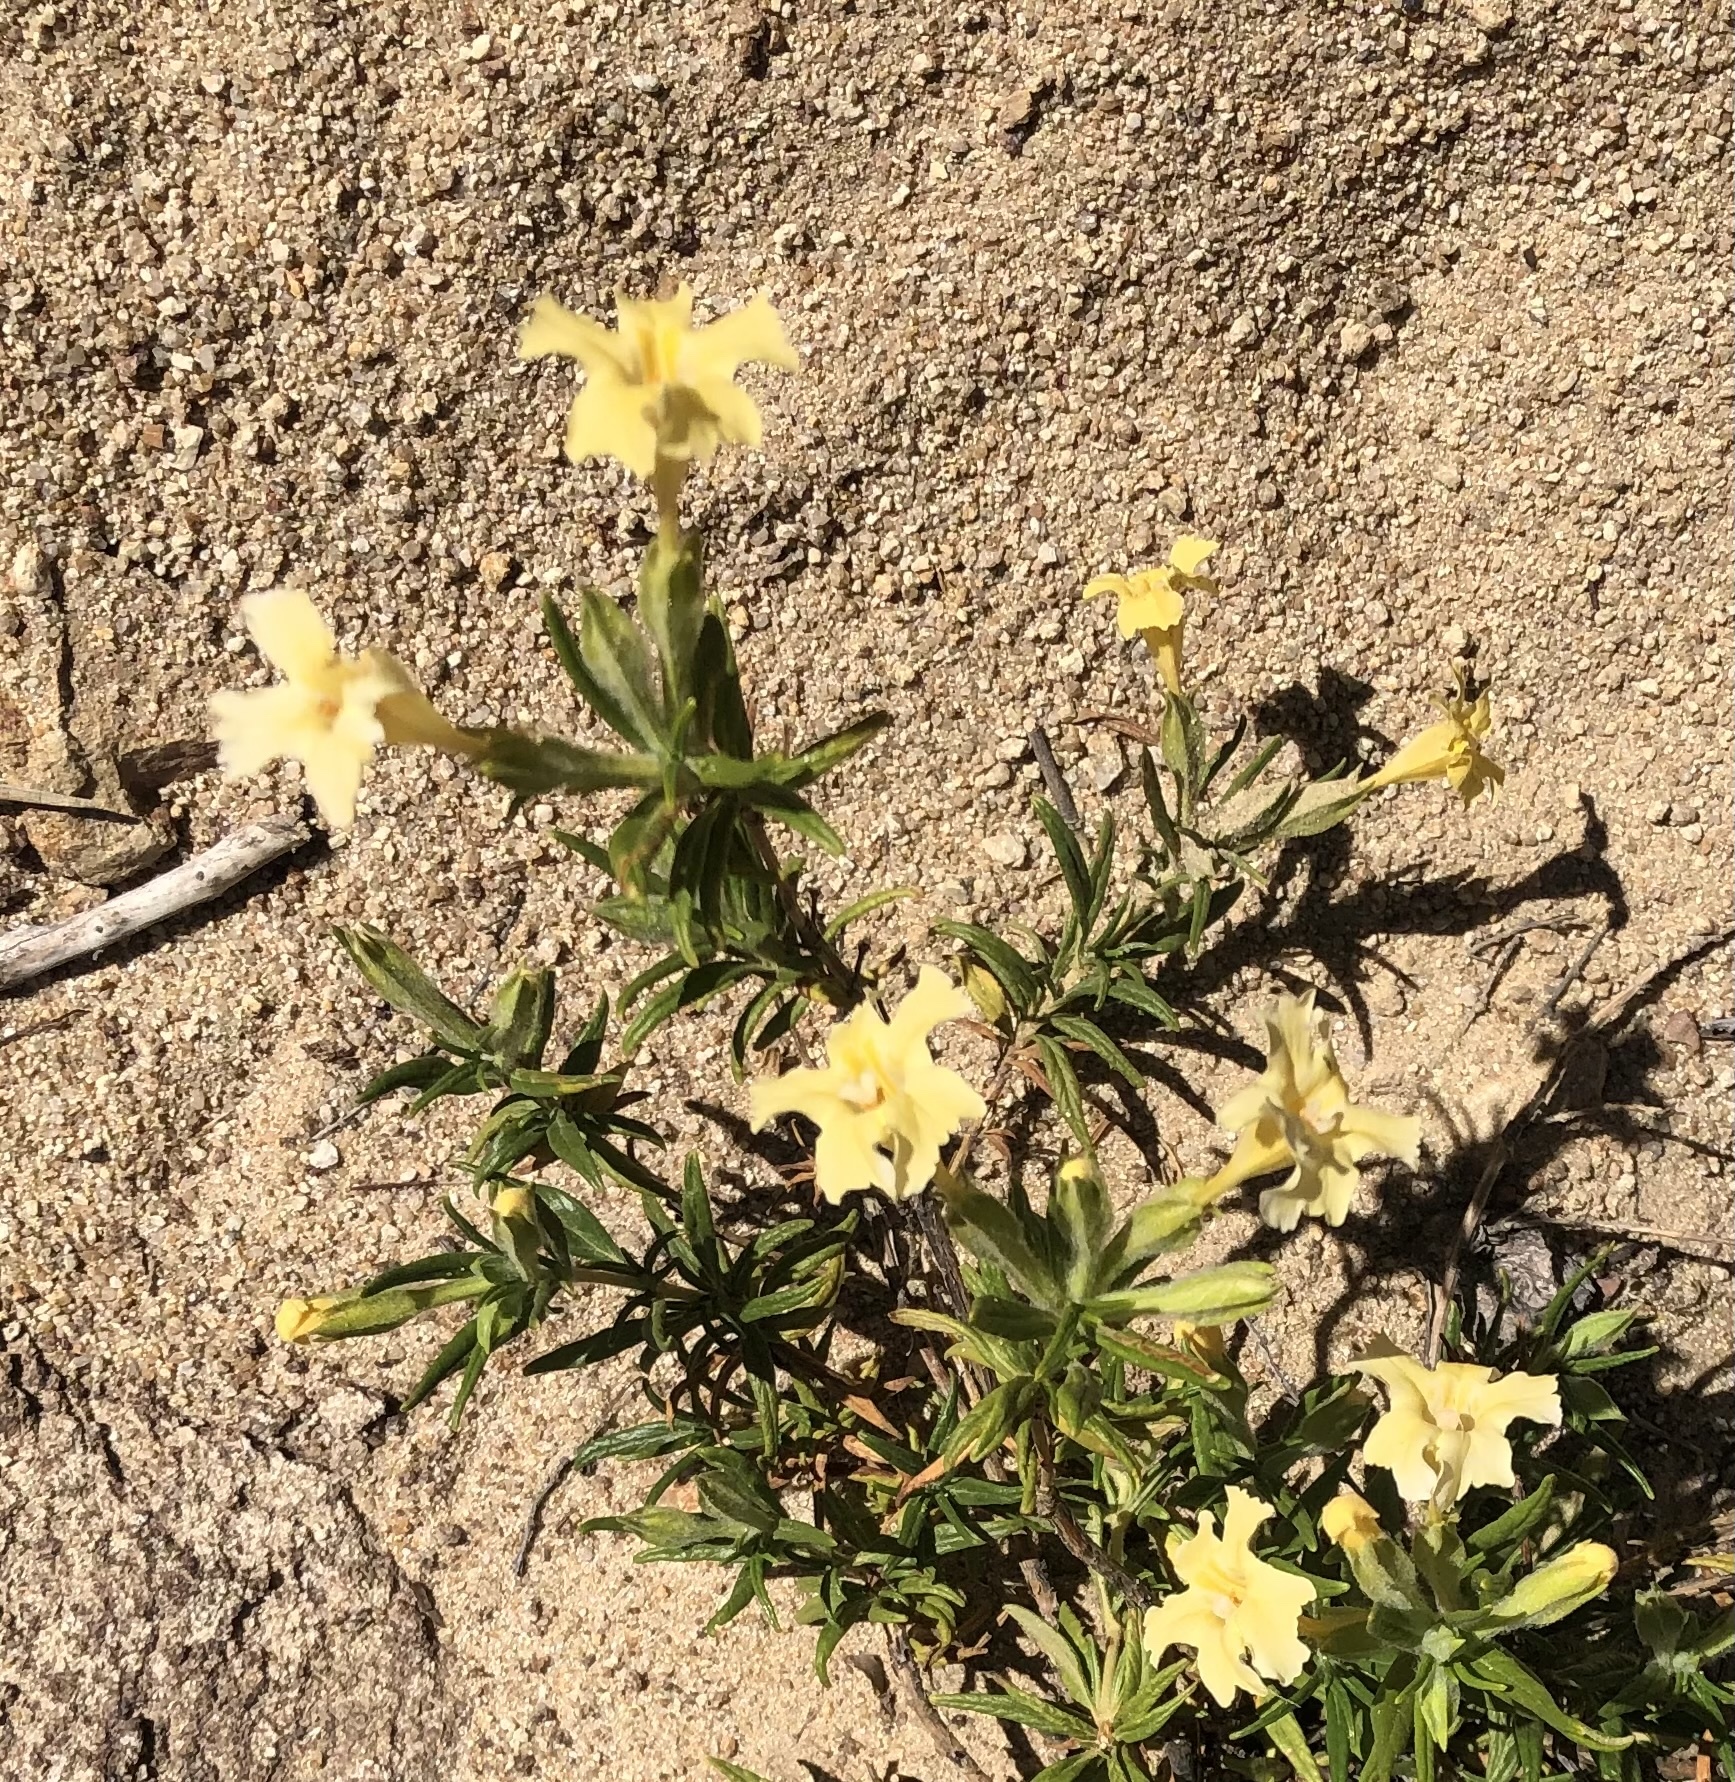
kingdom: Plantae
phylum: Tracheophyta
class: Magnoliopsida
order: Lamiales
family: Phrymaceae
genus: Diplacus
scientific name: Diplacus calycinus
